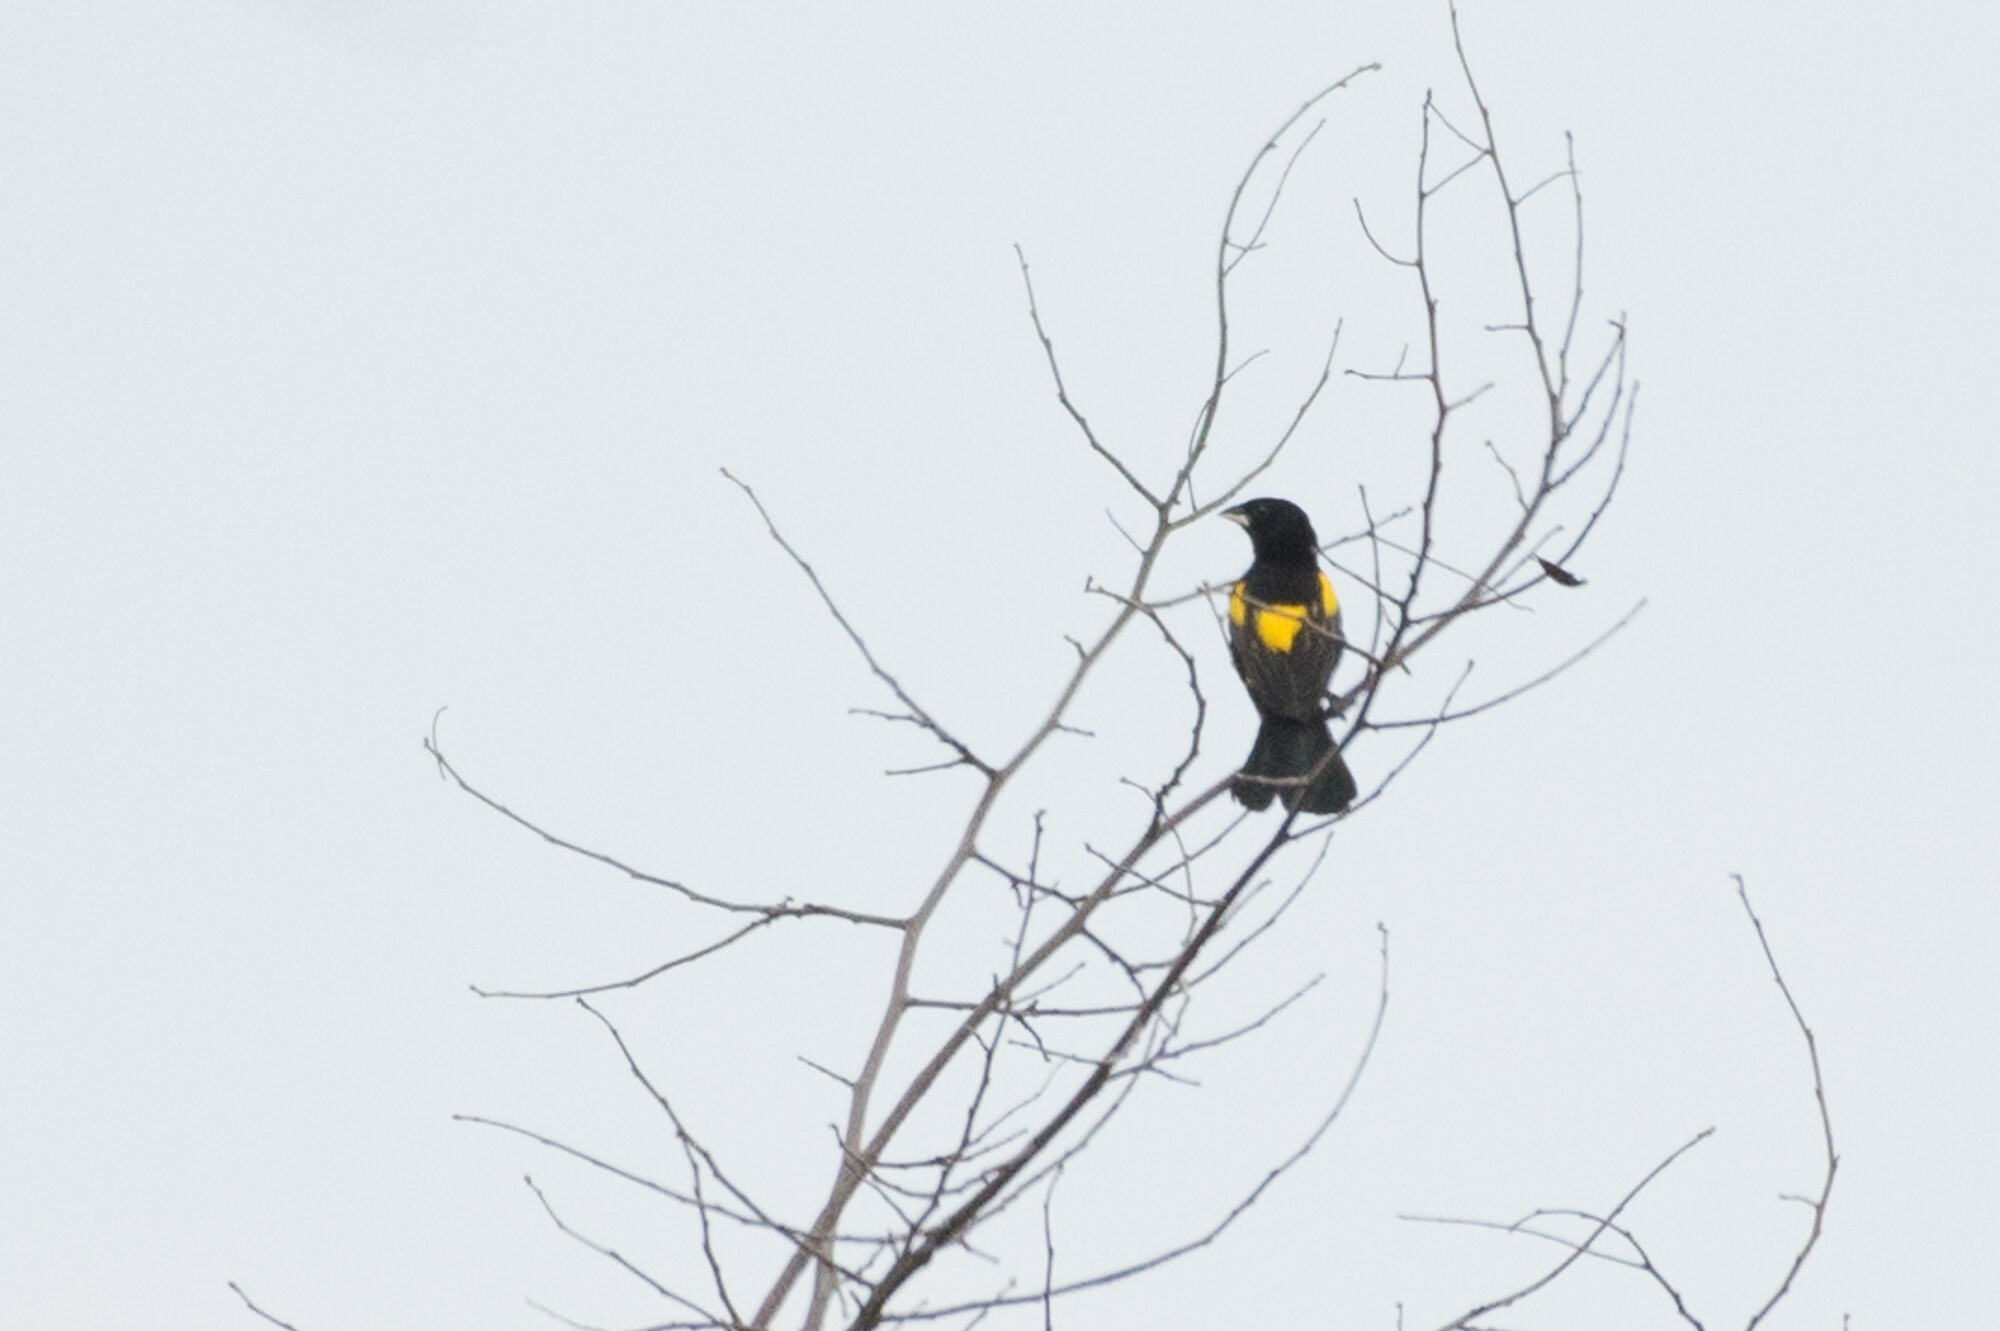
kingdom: Animalia
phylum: Chordata
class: Aves
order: Passeriformes
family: Ploceidae
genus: Euplectes
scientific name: Euplectes capensis
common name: Yellow bishop
